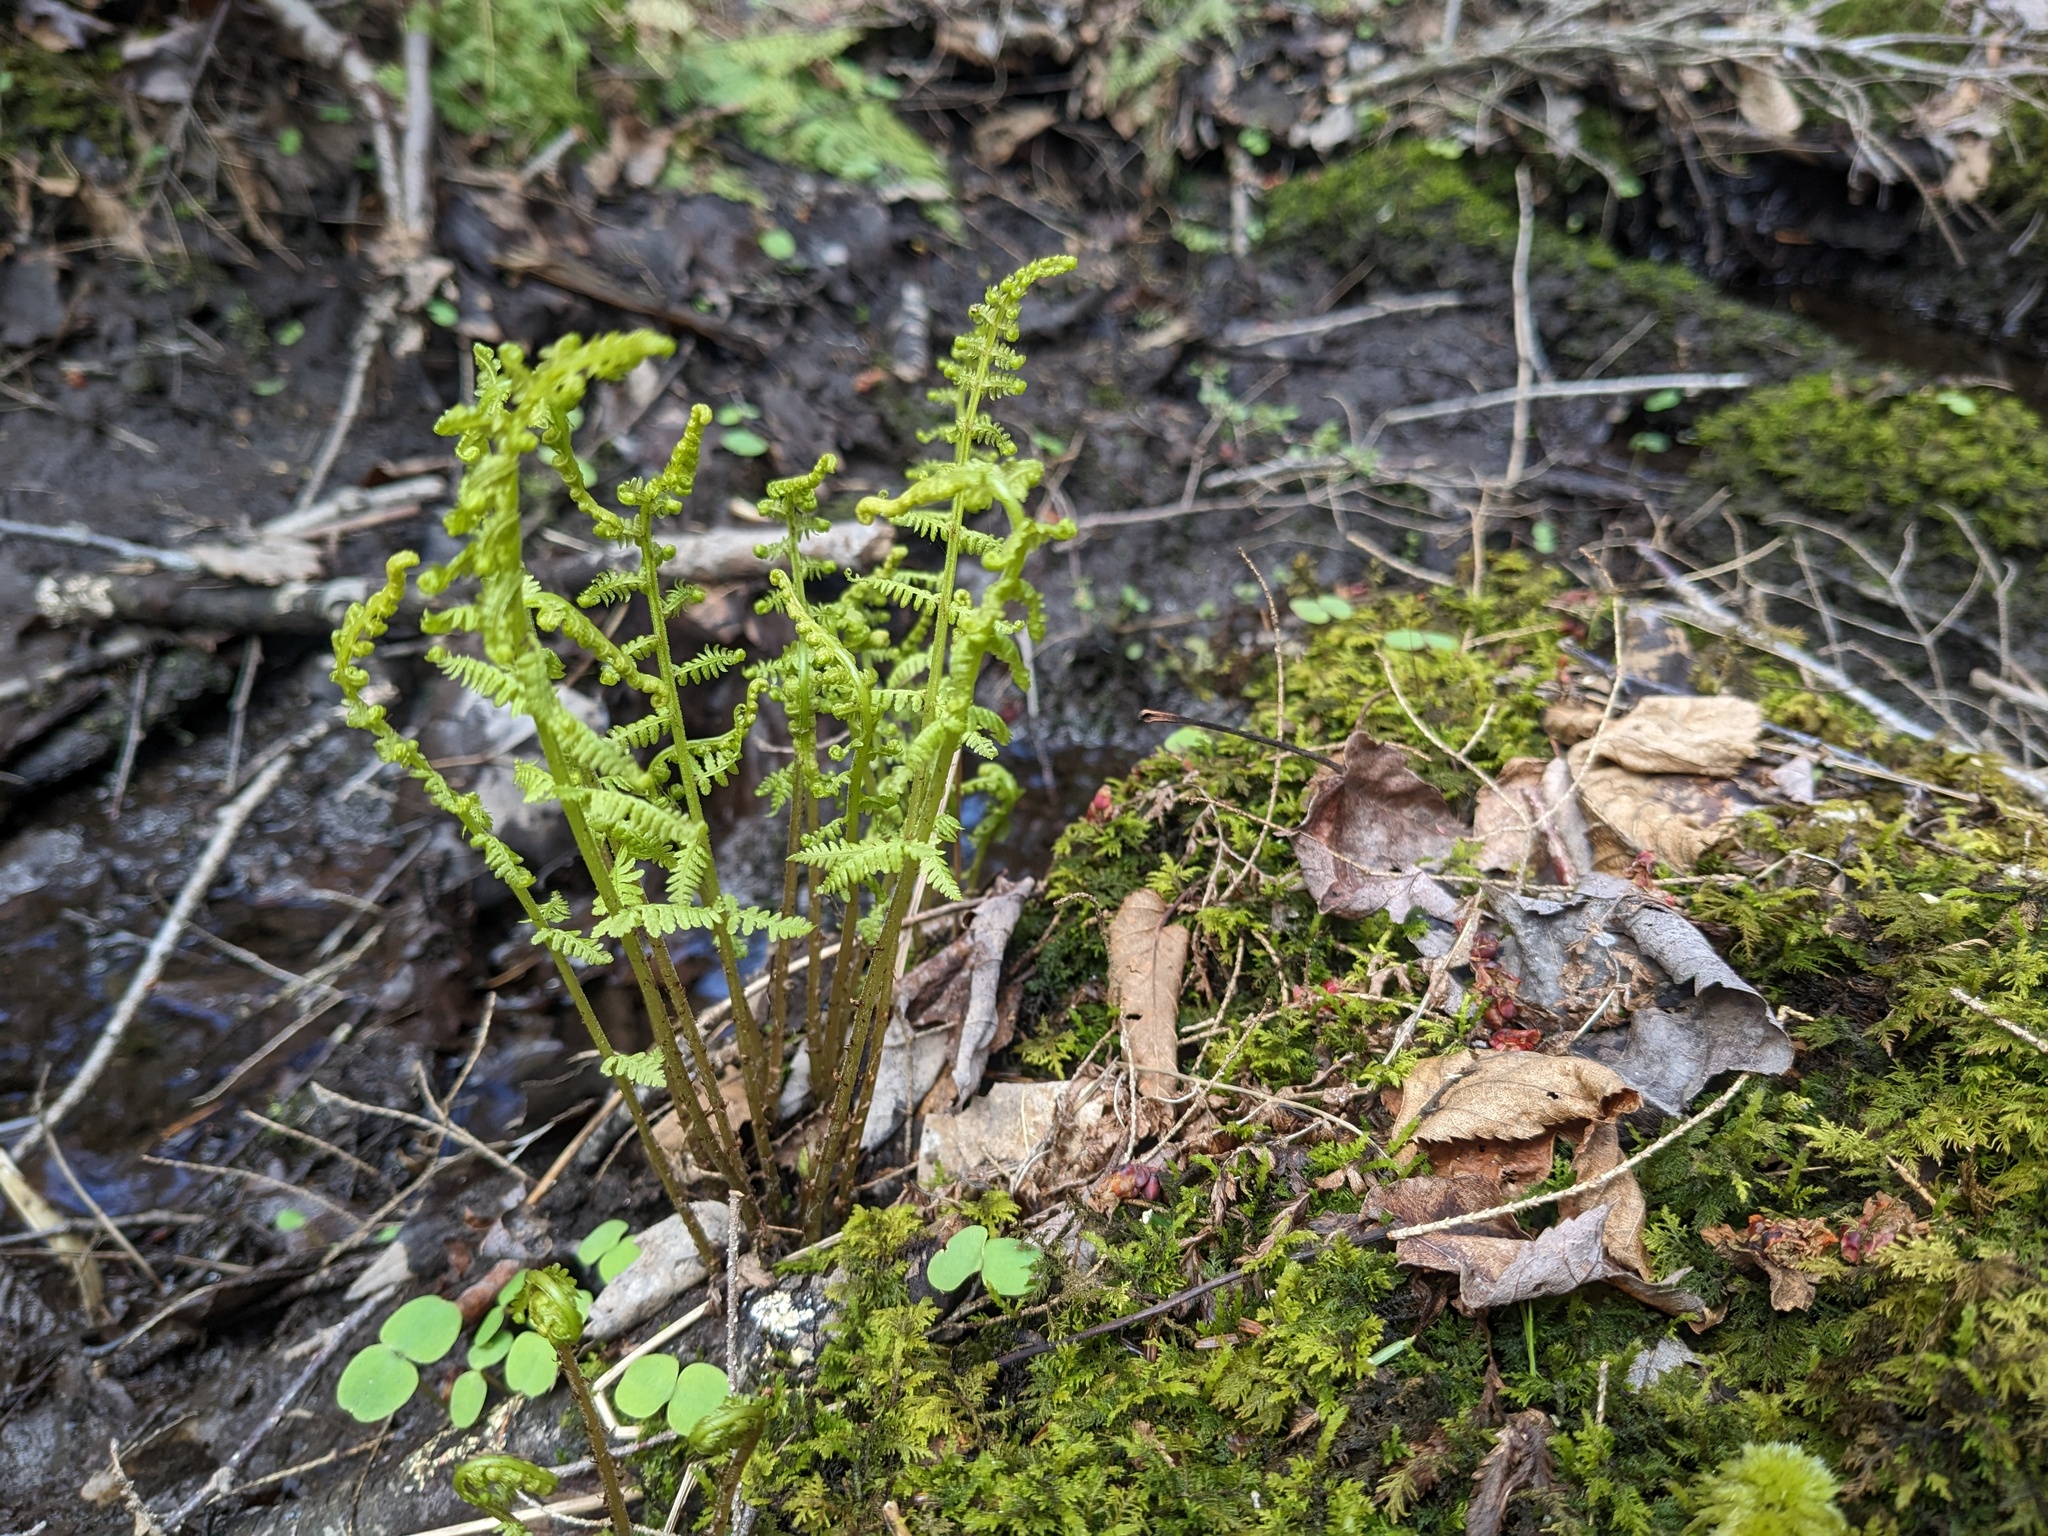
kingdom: Plantae
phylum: Tracheophyta
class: Polypodiopsida
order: Polypodiales
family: Athyriaceae
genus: Athyrium
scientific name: Athyrium angustum
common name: Northern lady fern
